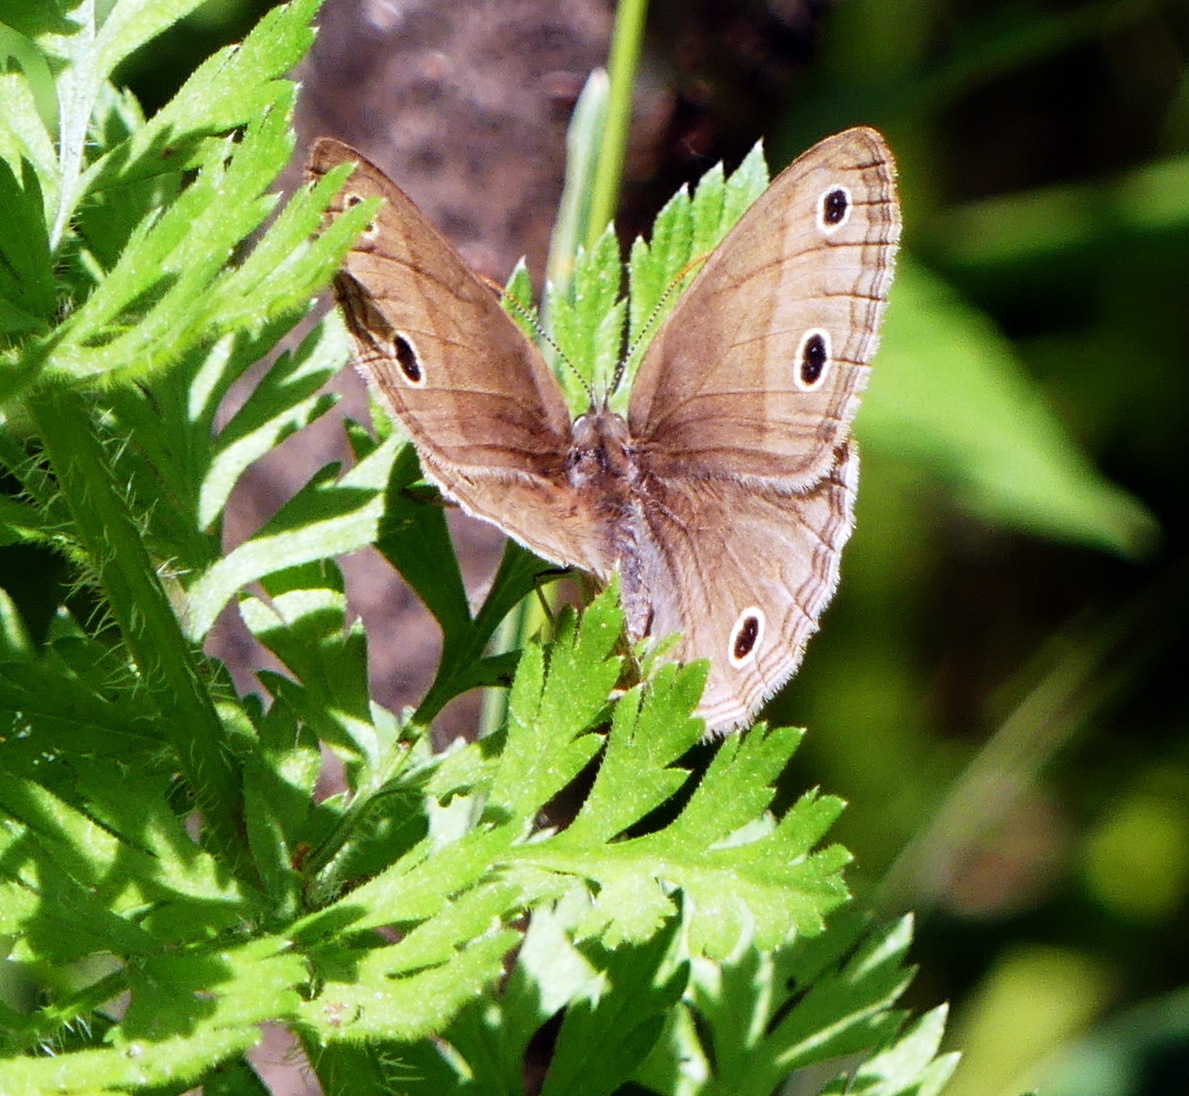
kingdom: Animalia
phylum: Arthropoda
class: Insecta
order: Lepidoptera
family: Nymphalidae
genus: Euptychia
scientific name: Euptychia cymela
